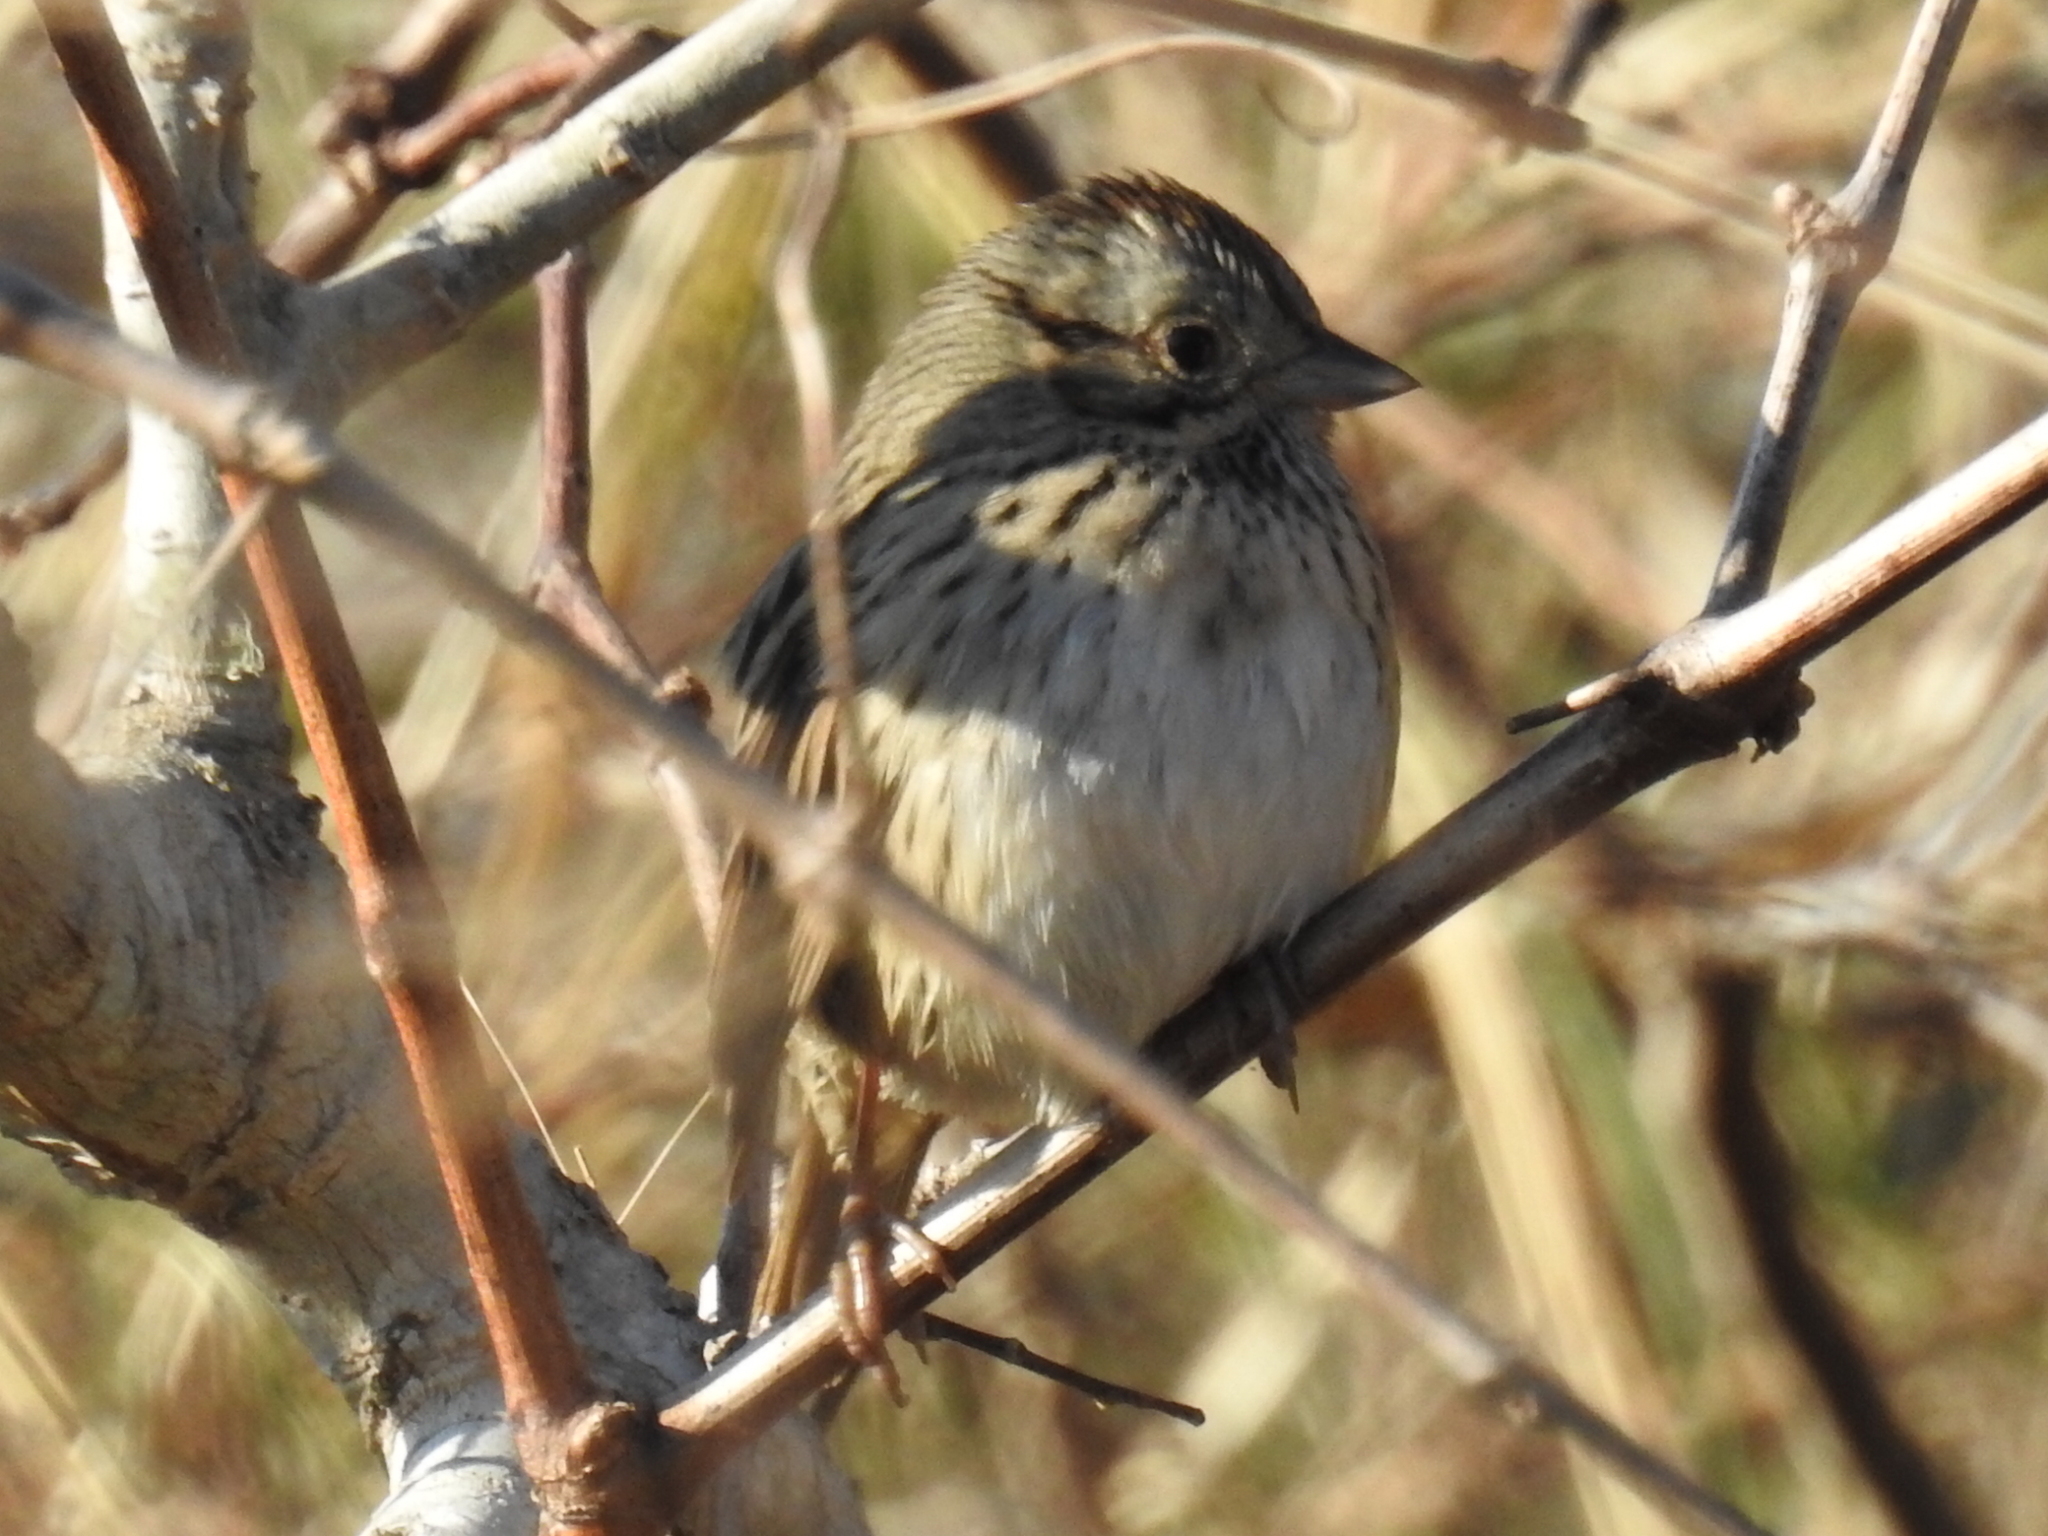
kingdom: Animalia
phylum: Chordata
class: Aves
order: Passeriformes
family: Passerellidae
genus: Melospiza
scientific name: Melospiza lincolnii
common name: Lincoln's sparrow
